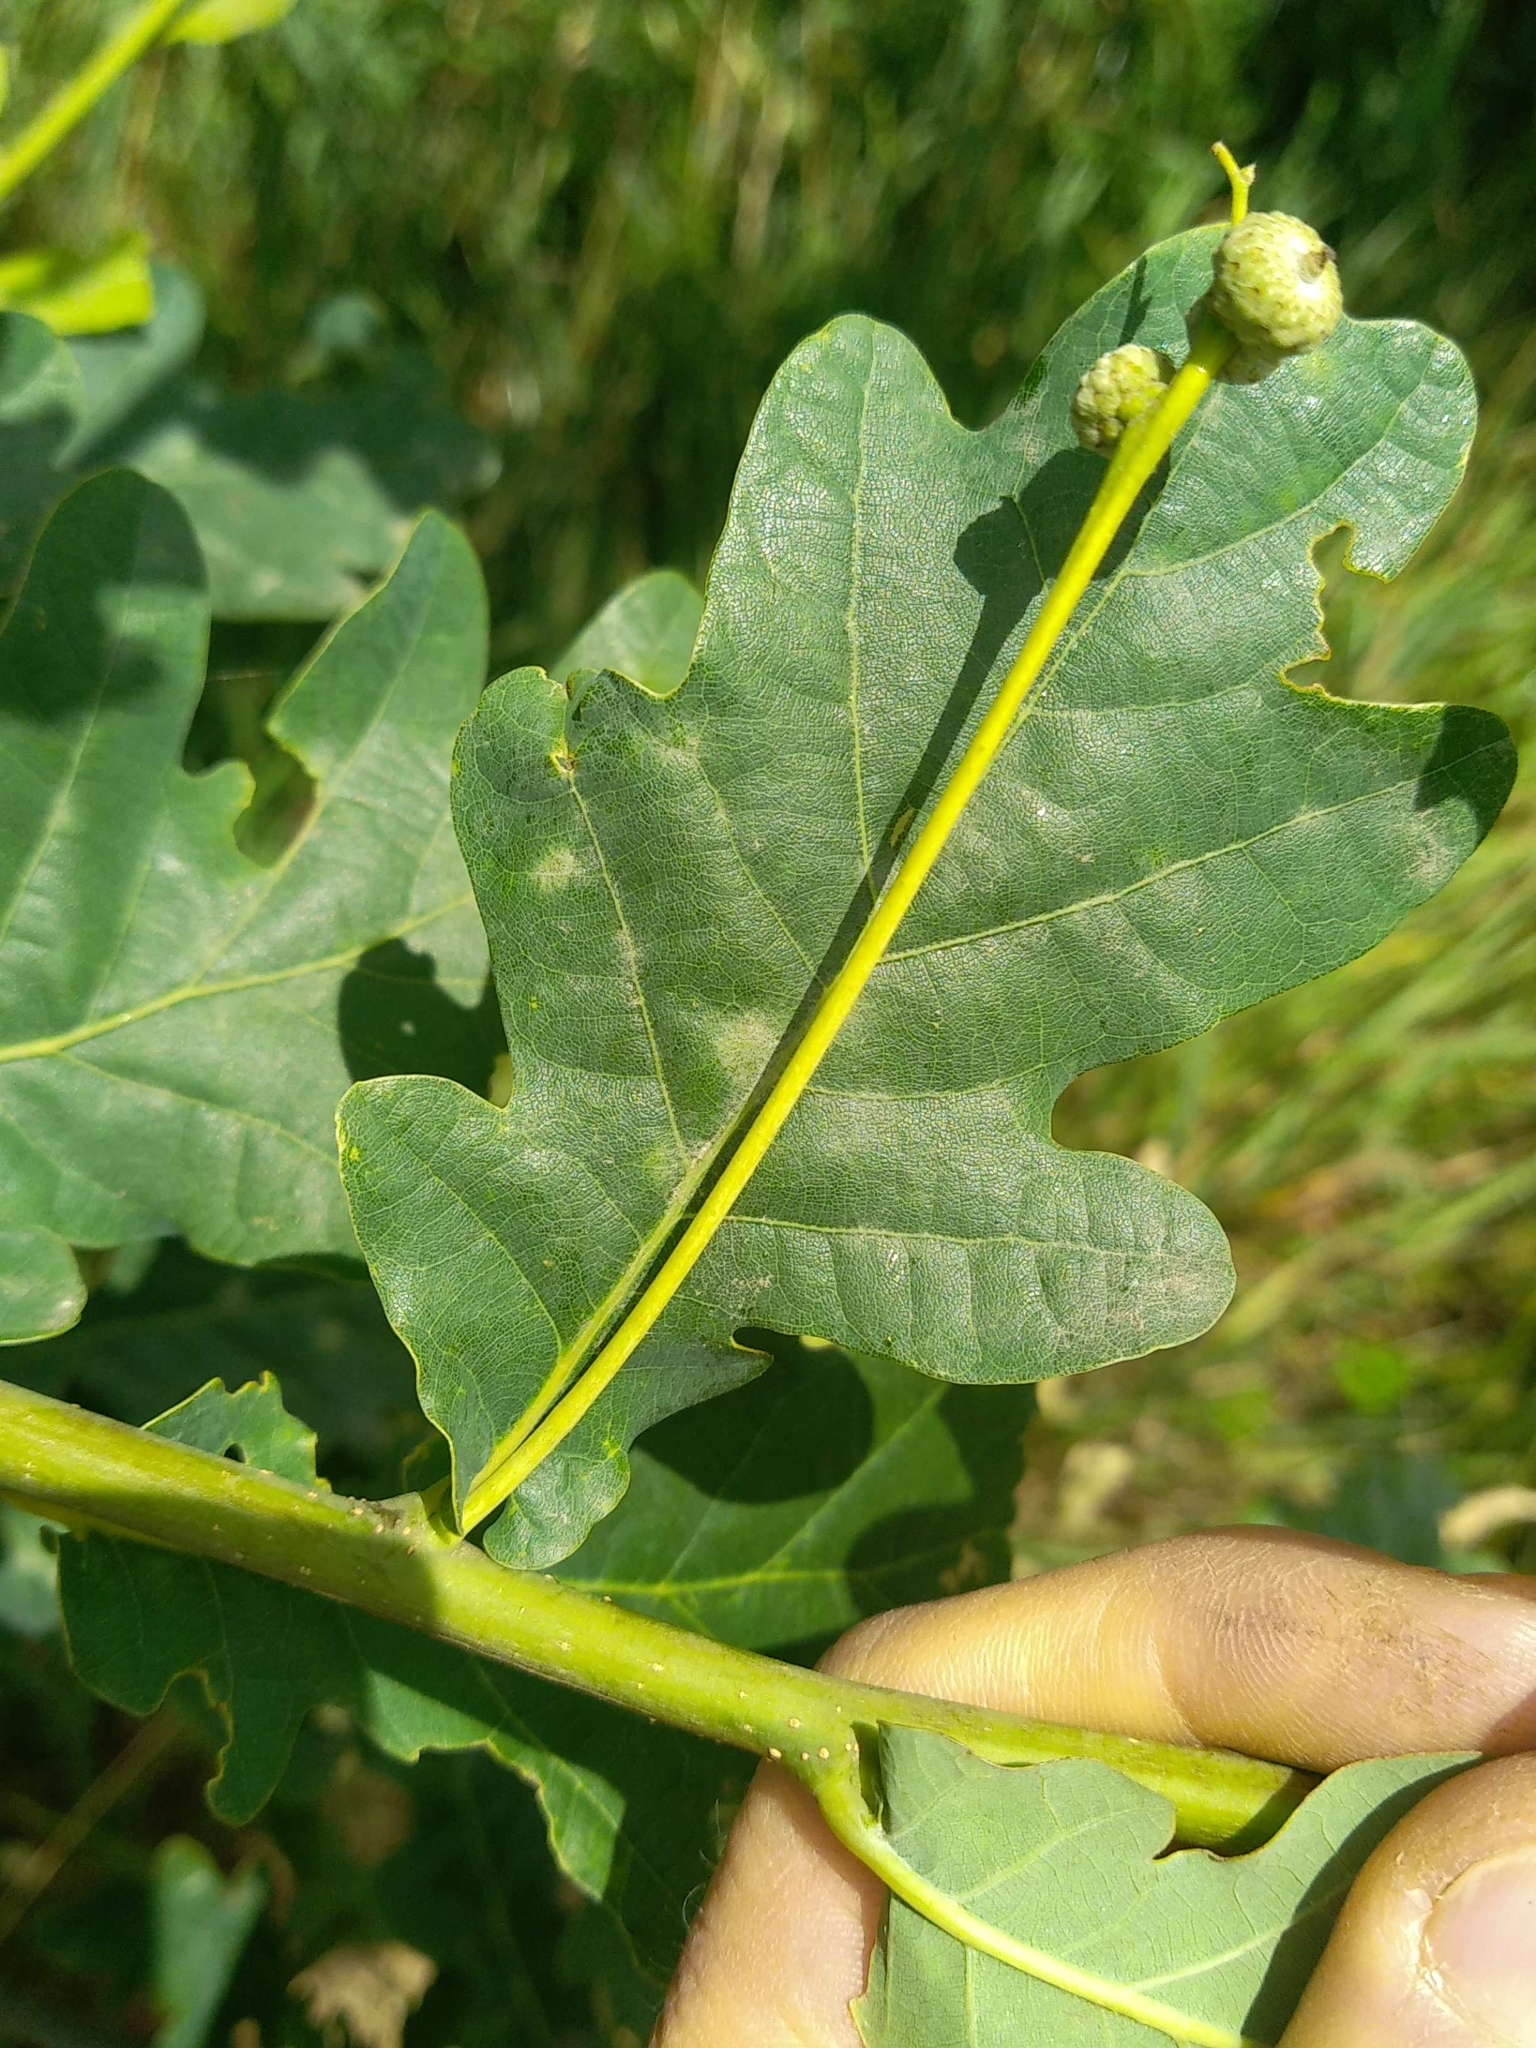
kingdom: Plantae
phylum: Tracheophyta
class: Magnoliopsida
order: Fagales
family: Fagaceae
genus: Quercus
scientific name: Quercus robur
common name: Pedunculate oak
